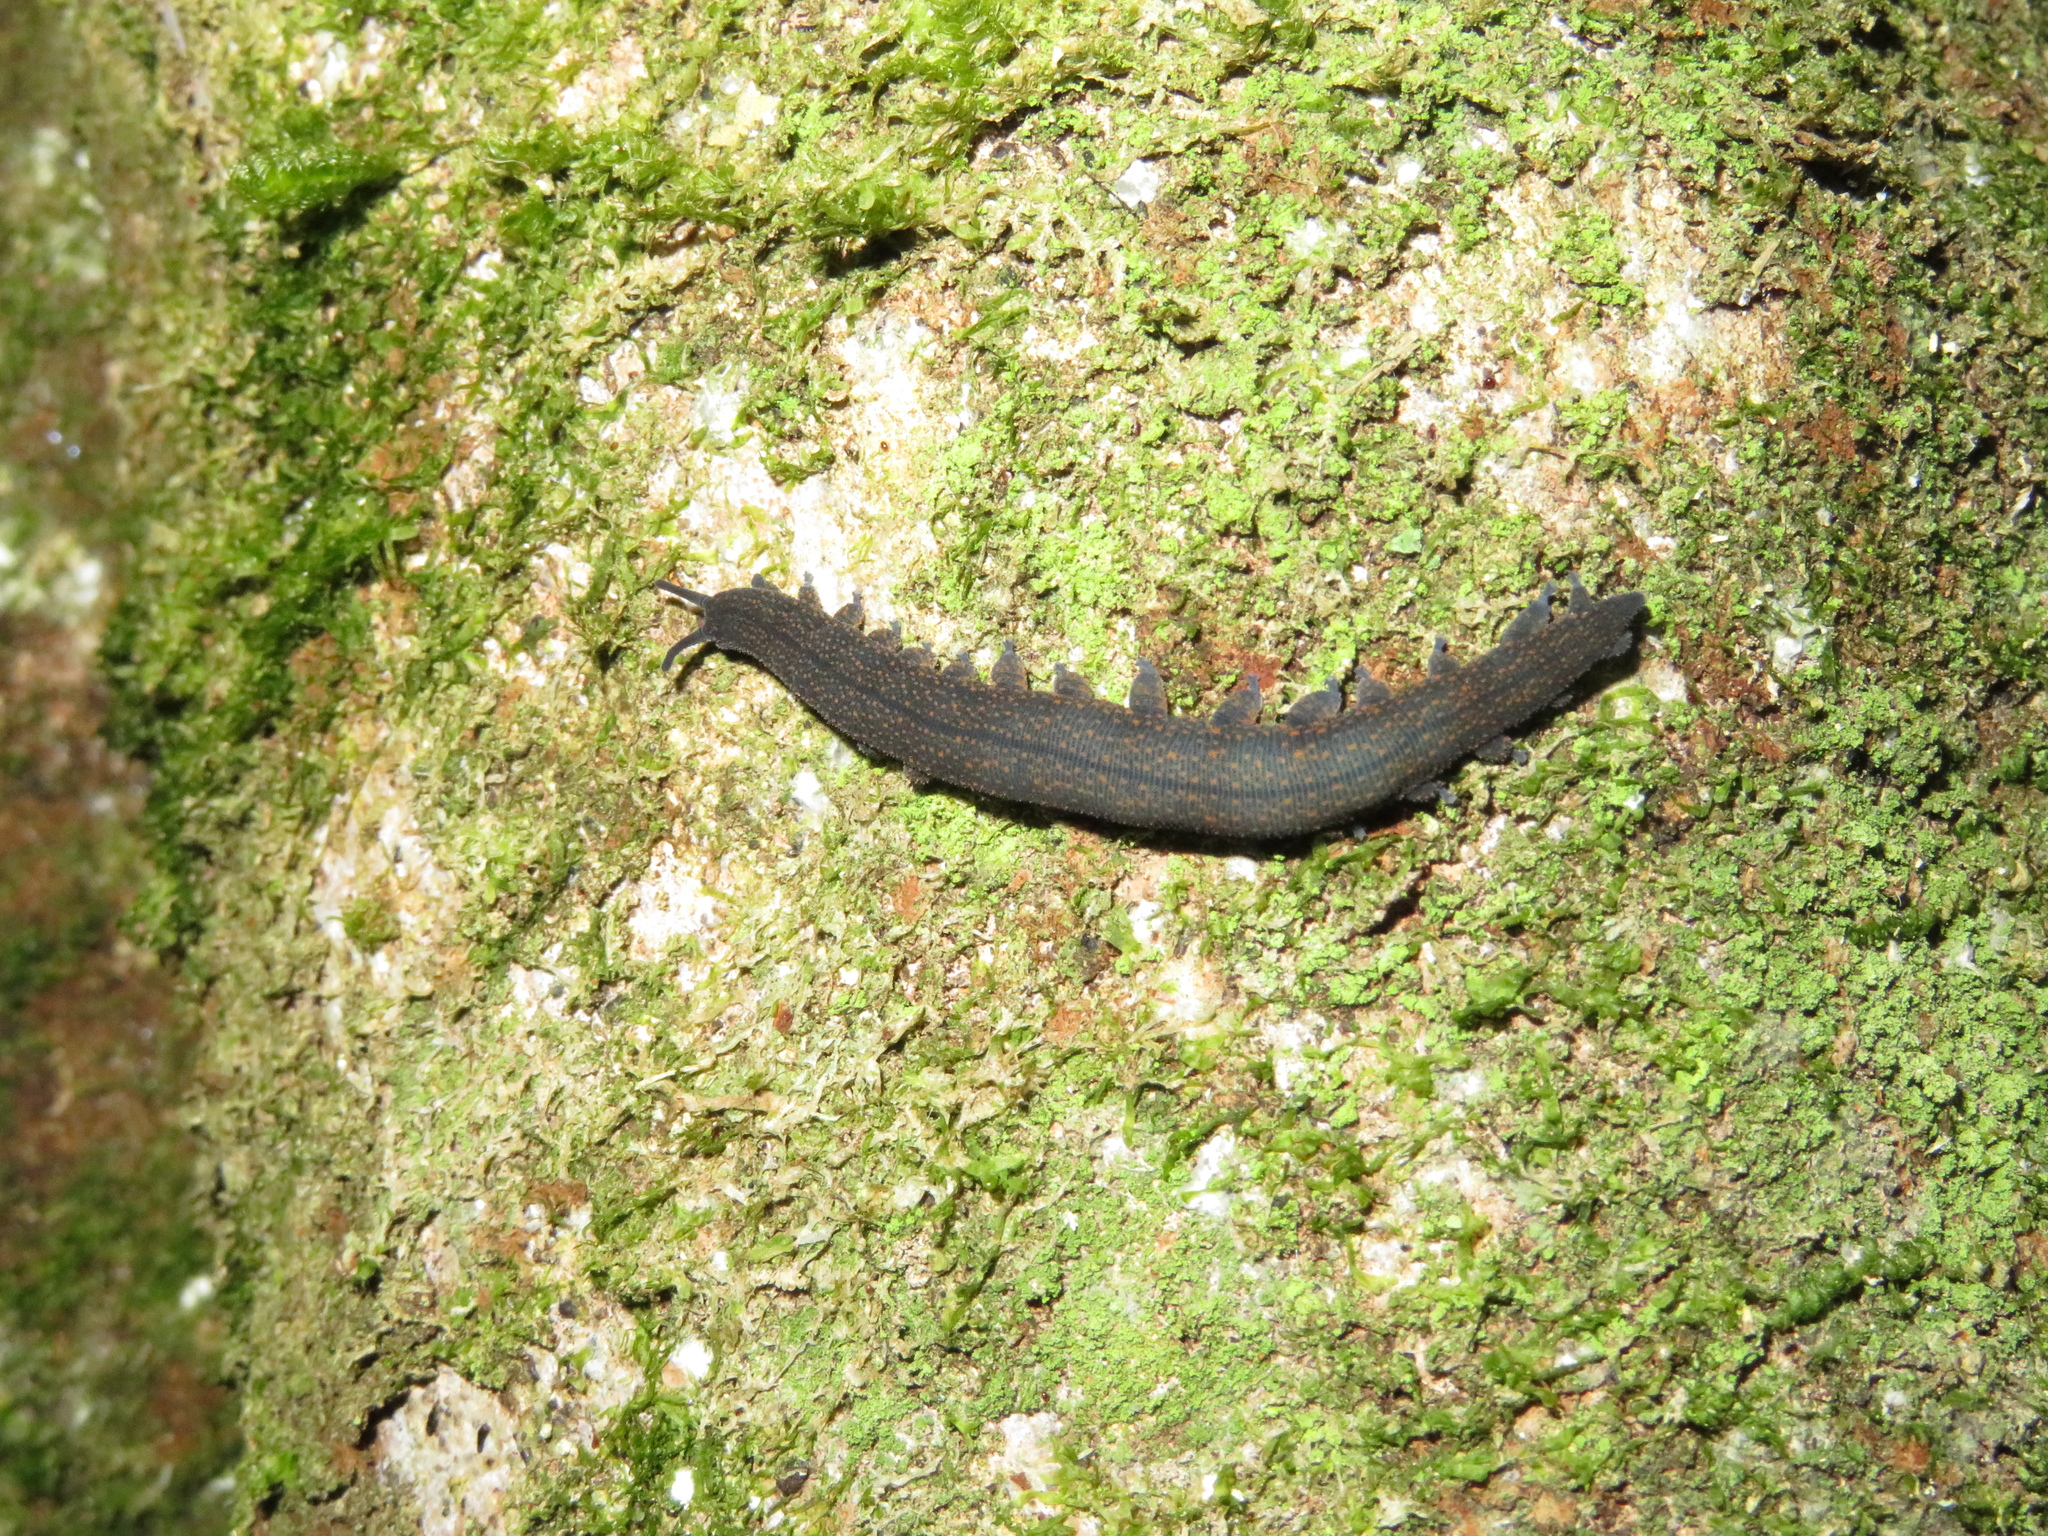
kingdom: Animalia
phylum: Onychophora
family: Peripatopsidae
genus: Peripatoides
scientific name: Peripatoides novaezealandiae
